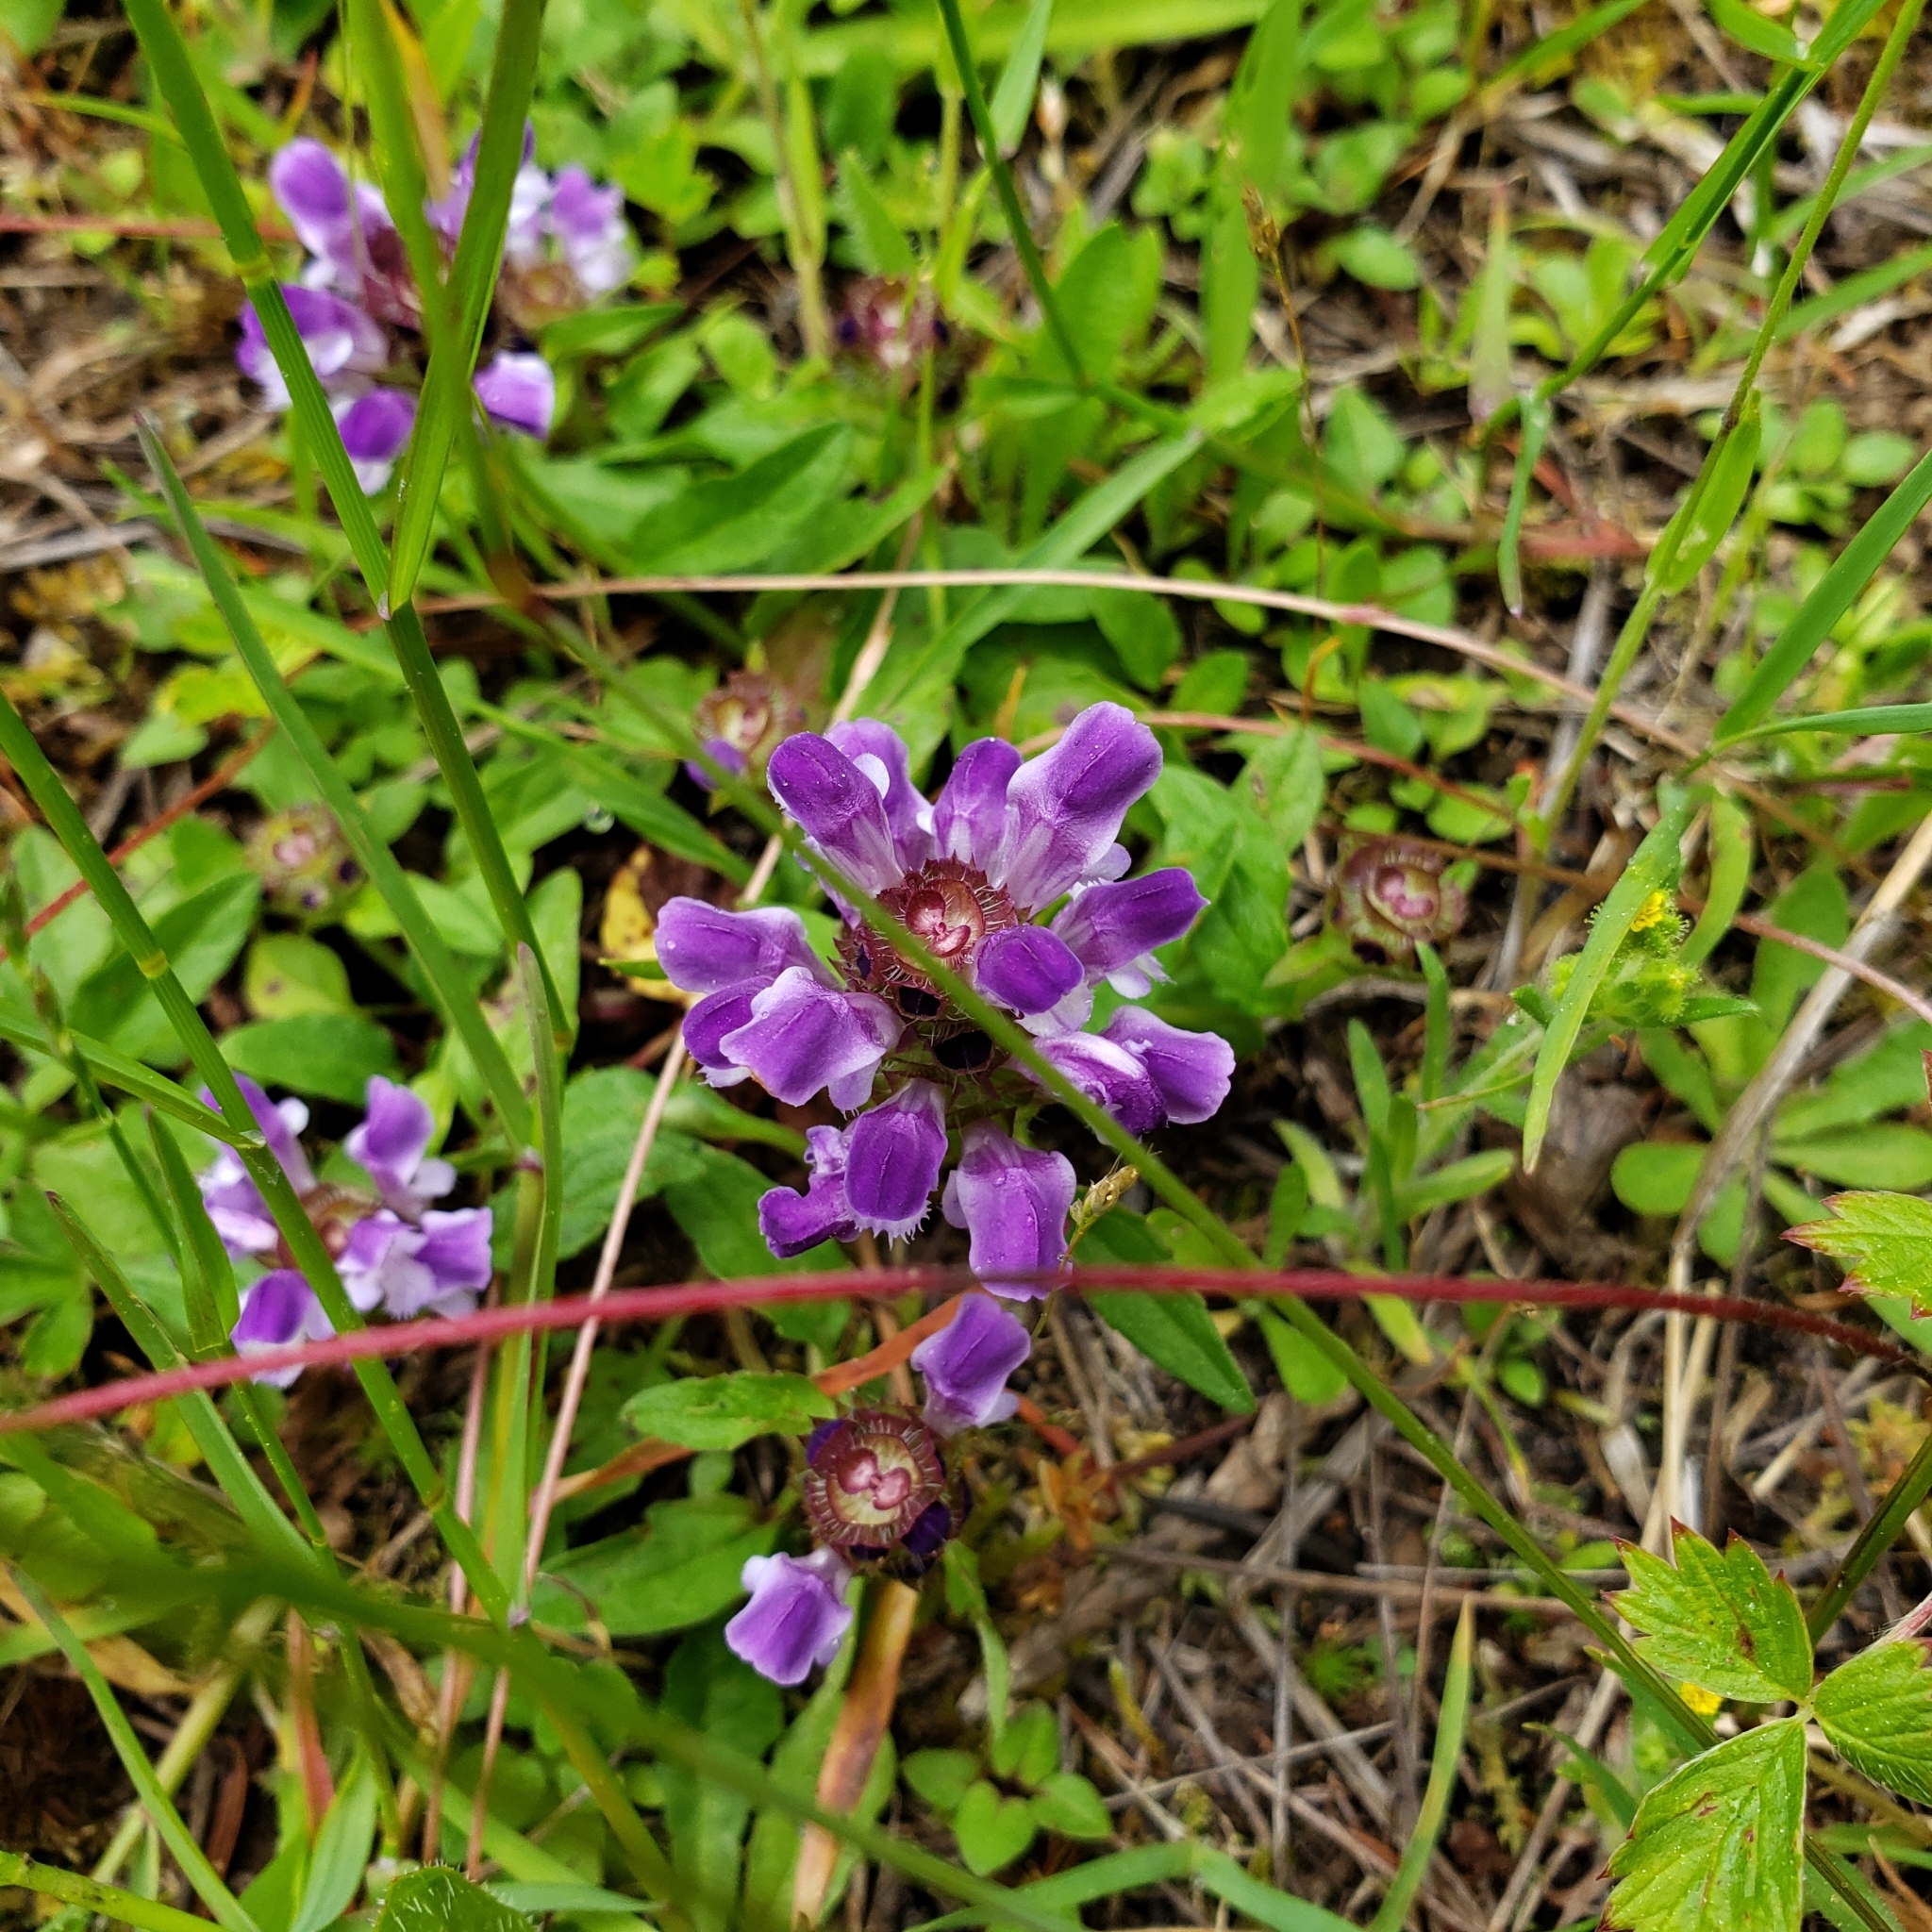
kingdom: Plantae
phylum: Tracheophyta
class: Magnoliopsida
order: Lamiales
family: Lamiaceae
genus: Prunella
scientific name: Prunella vulgaris
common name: Heal-all
